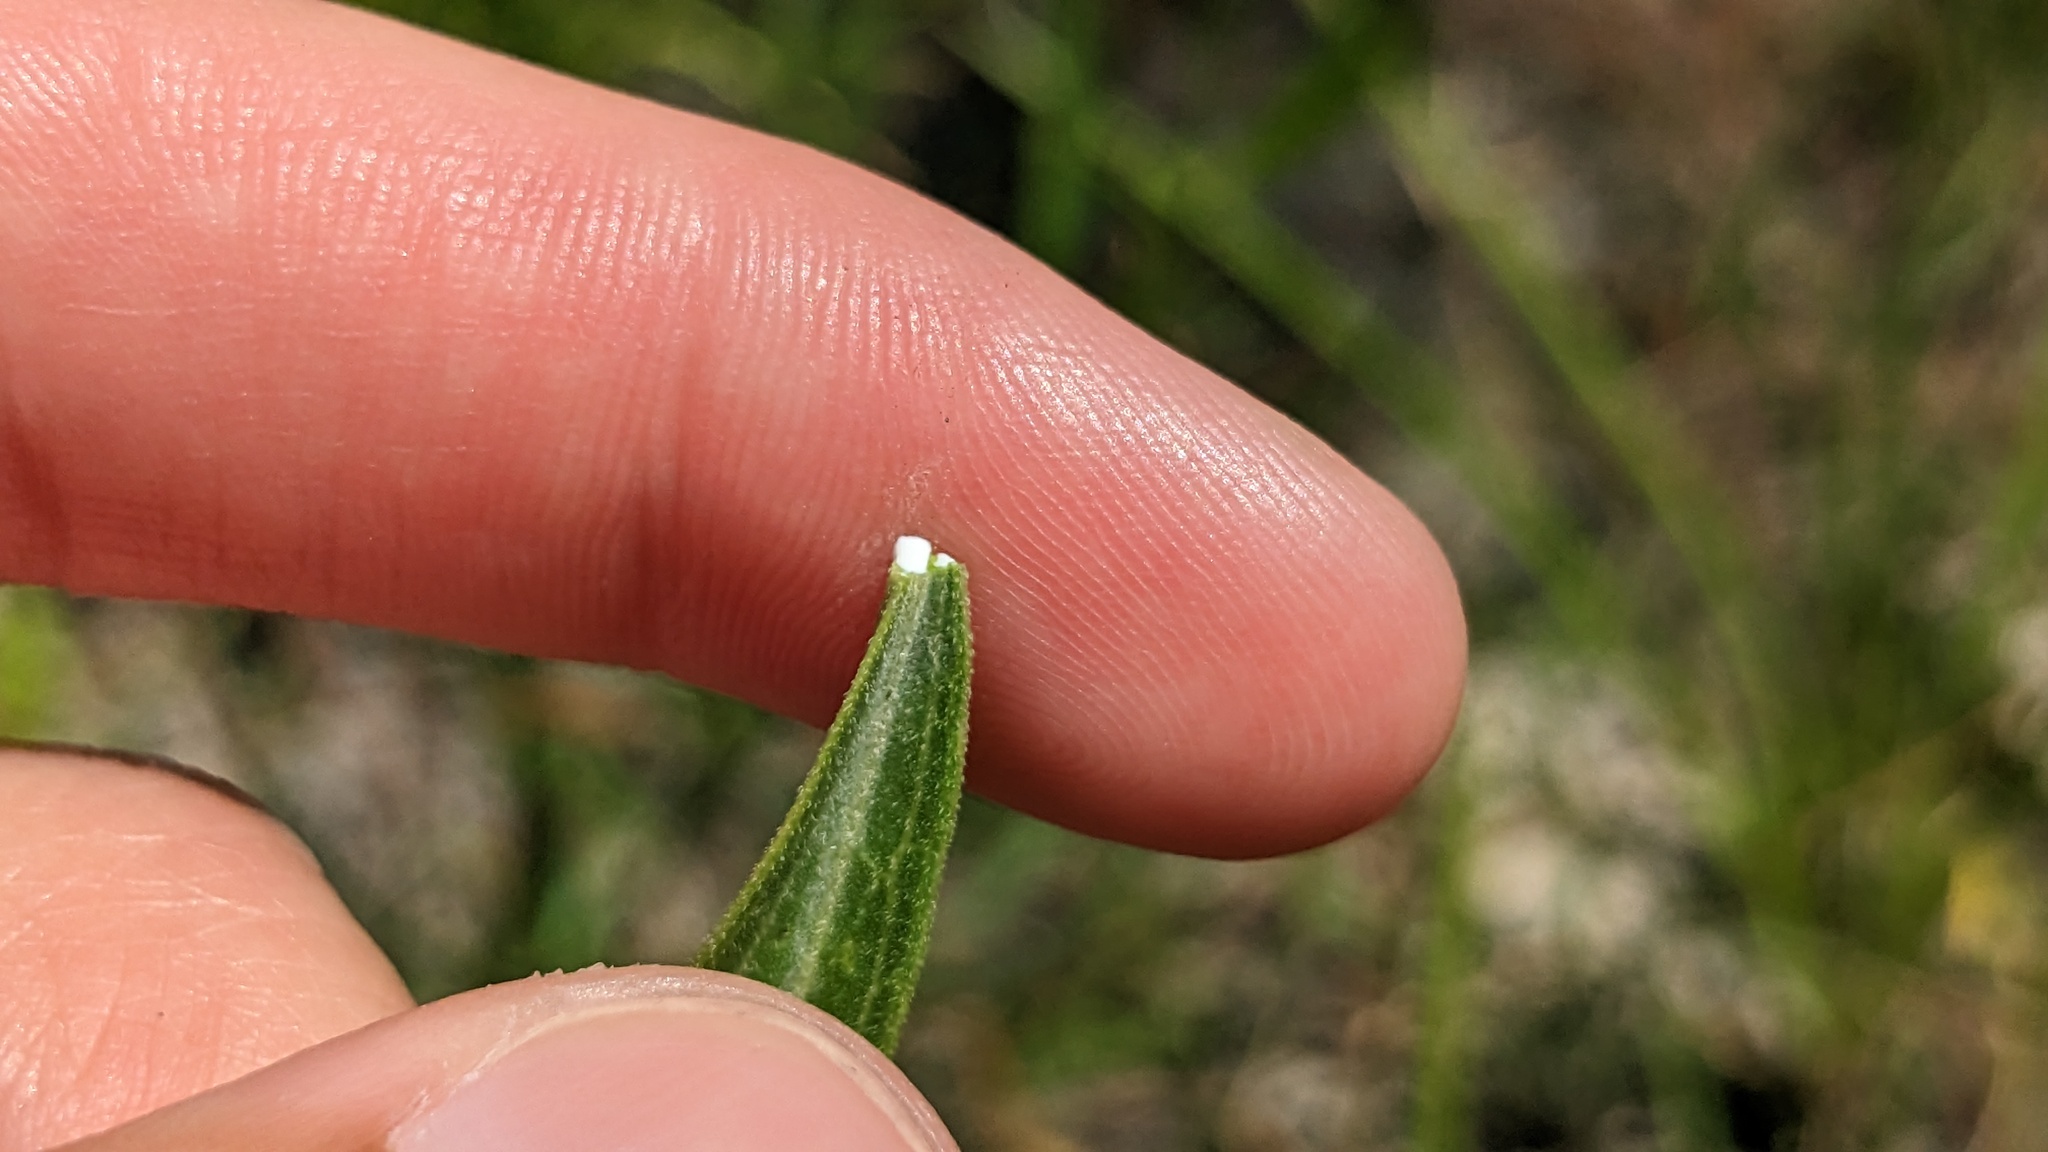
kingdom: Plantae
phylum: Tracheophyta
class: Magnoliopsida
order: Gentianales
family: Apocynaceae
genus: Asclepias
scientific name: Asclepias longifolia
